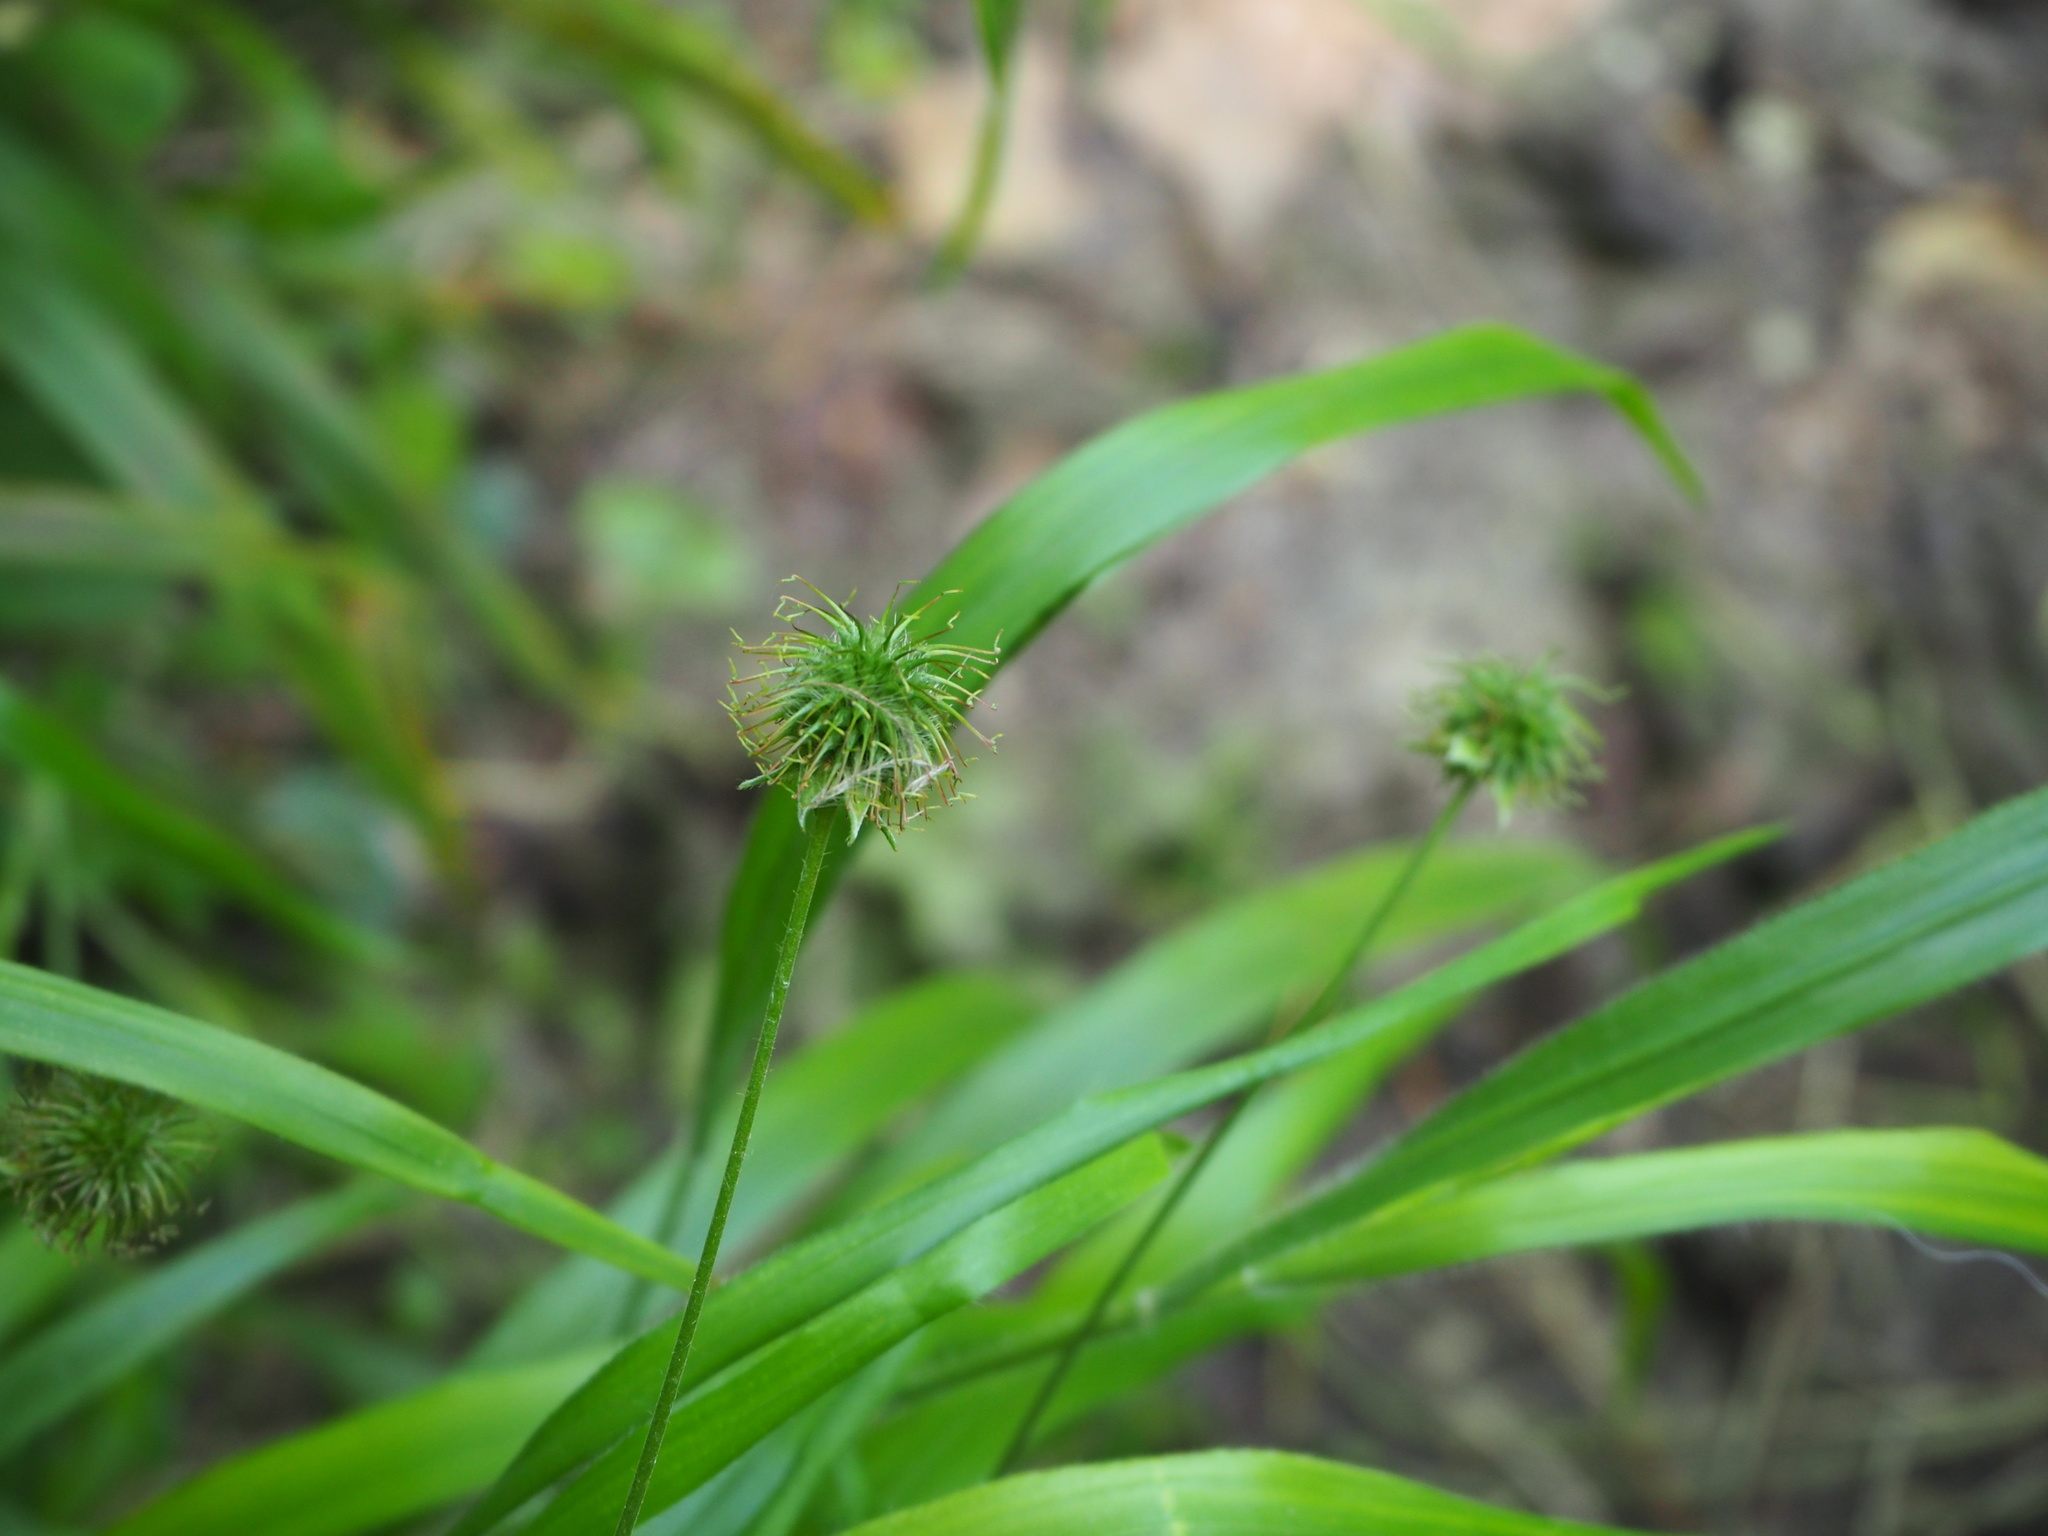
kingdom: Plantae
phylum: Tracheophyta
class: Magnoliopsida
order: Rosales
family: Rosaceae
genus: Geum
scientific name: Geum urbanum
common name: Wood avens
